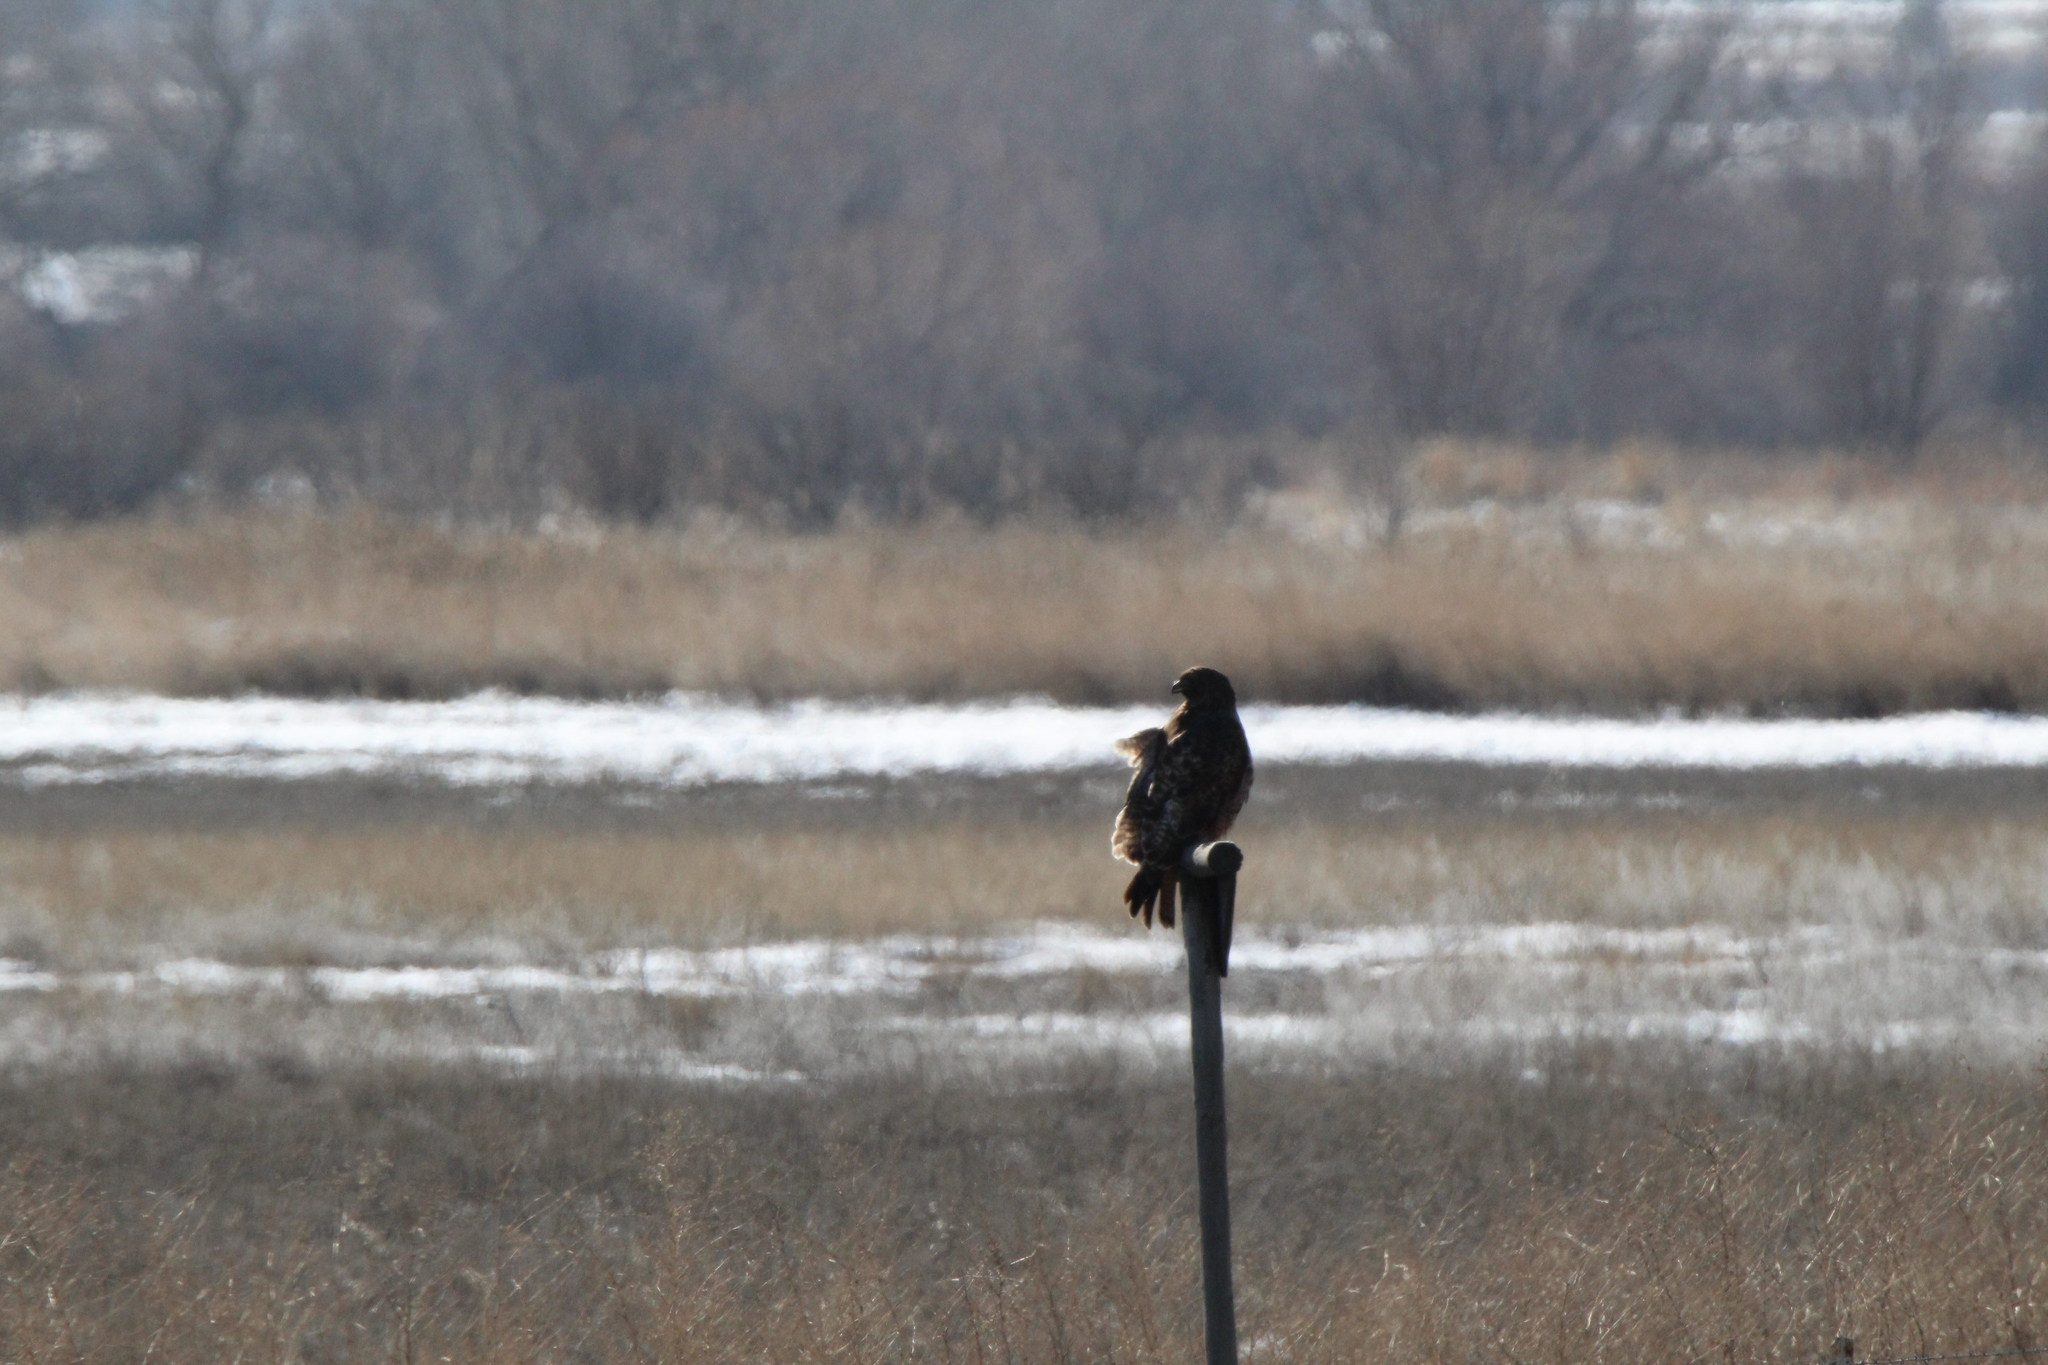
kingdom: Animalia
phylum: Chordata
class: Aves
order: Accipitriformes
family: Accipitridae
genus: Buteo
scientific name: Buteo jamaicensis
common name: Red-tailed hawk
